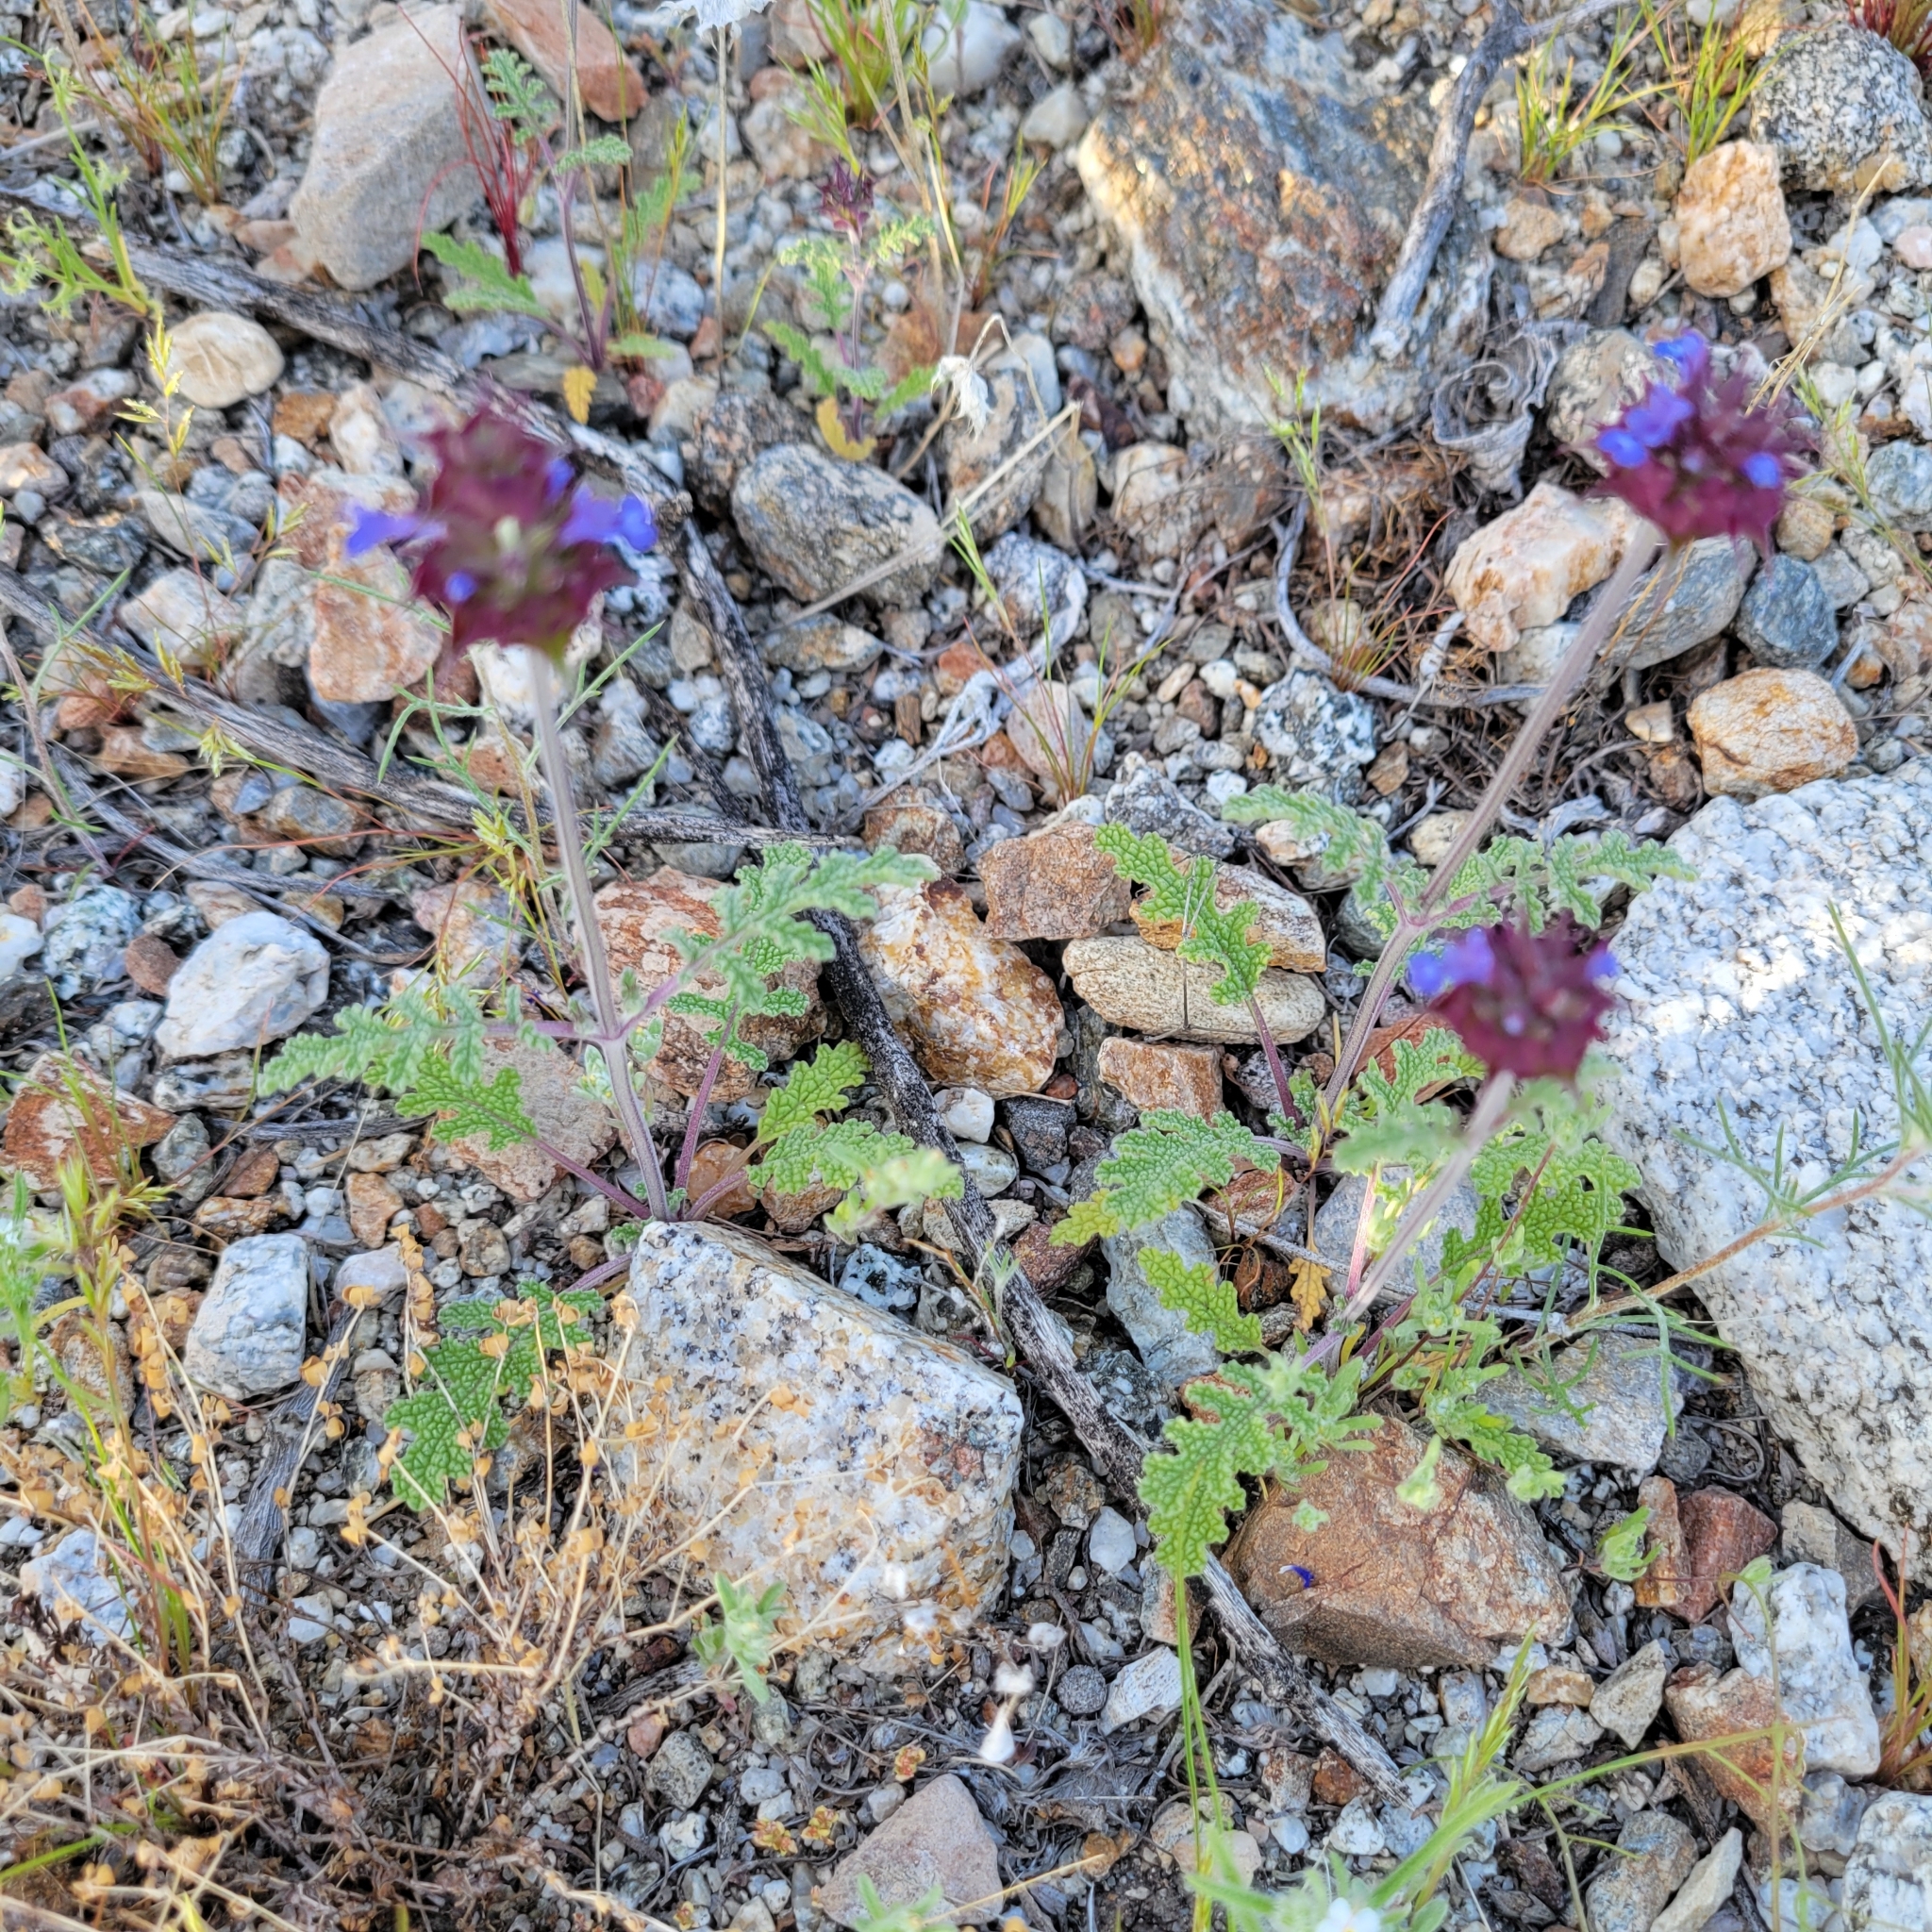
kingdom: Plantae
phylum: Tracheophyta
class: Magnoliopsida
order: Lamiales
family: Lamiaceae
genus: Salvia
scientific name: Salvia columbariae
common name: Chia
